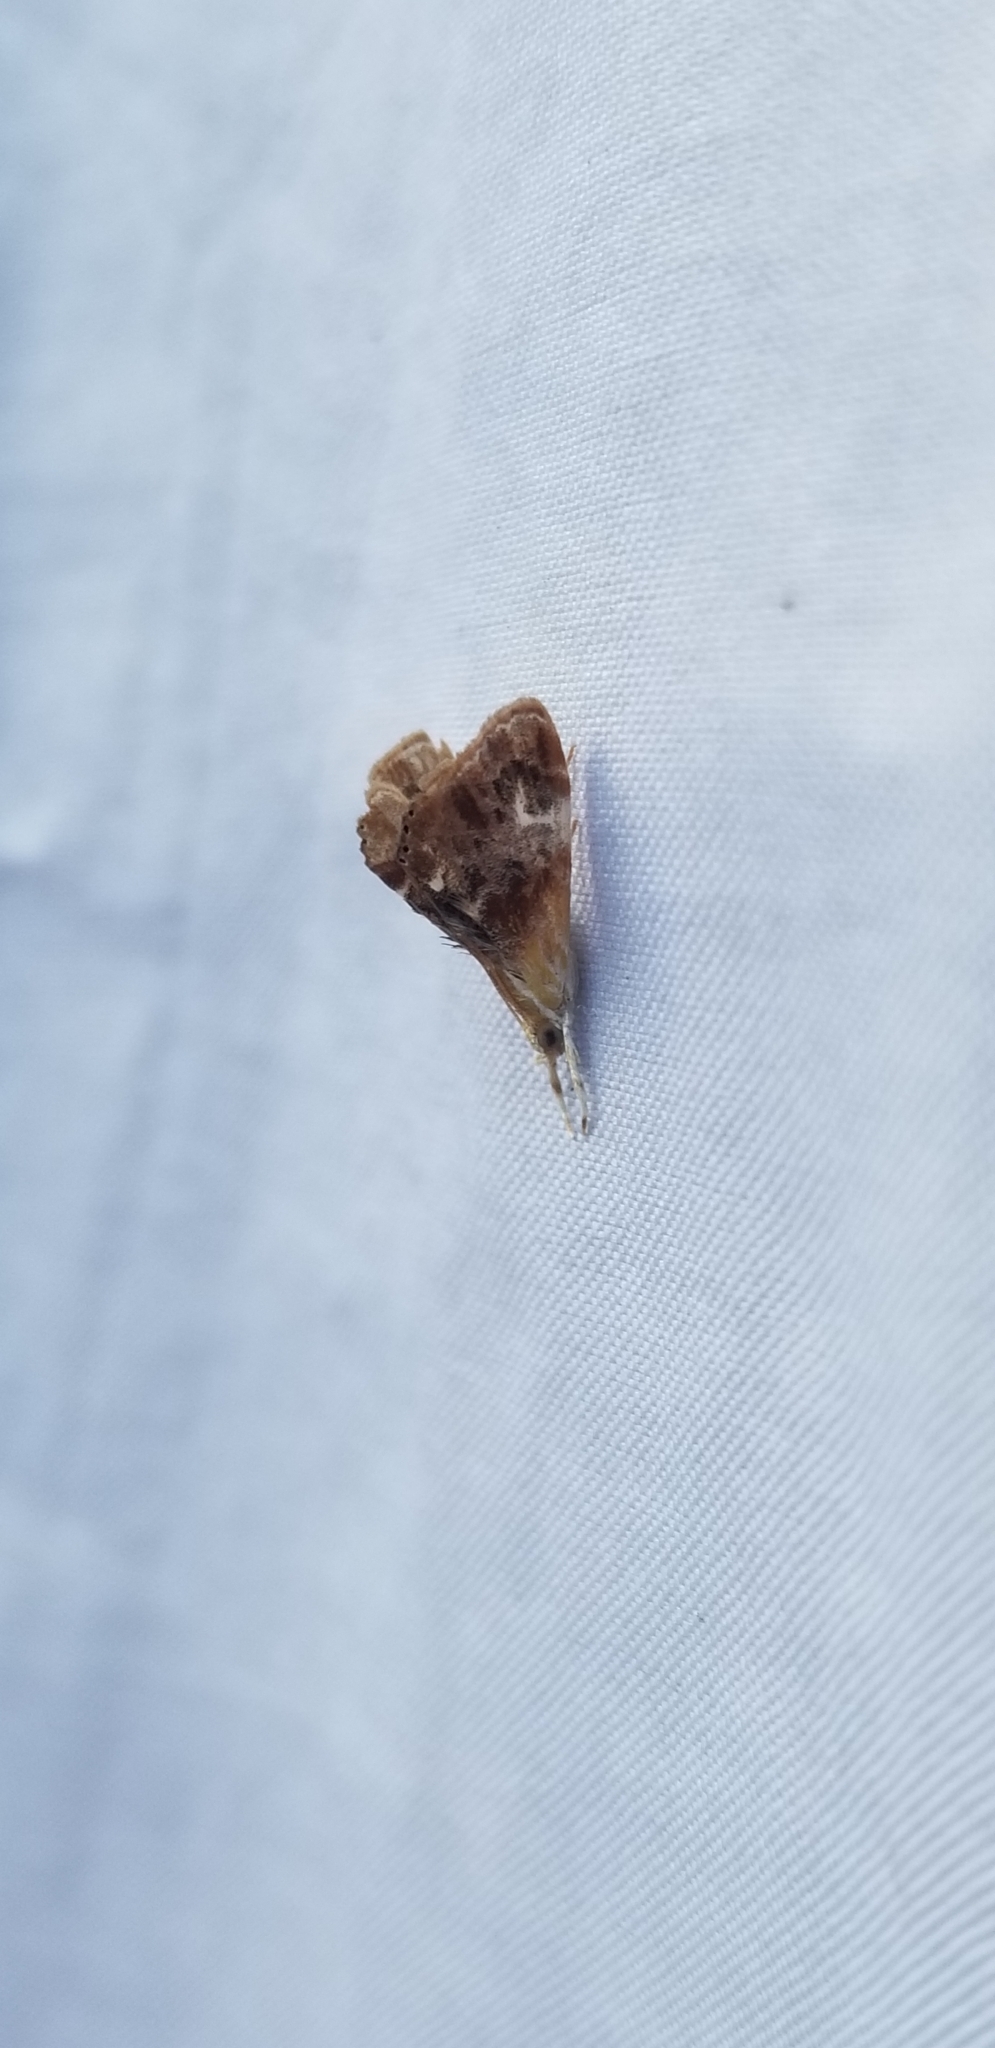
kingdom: Animalia
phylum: Arthropoda
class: Insecta
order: Lepidoptera
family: Crambidae
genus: Dicymolomia
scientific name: Dicymolomia julianalis
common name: Julia's dicymolomia moth
